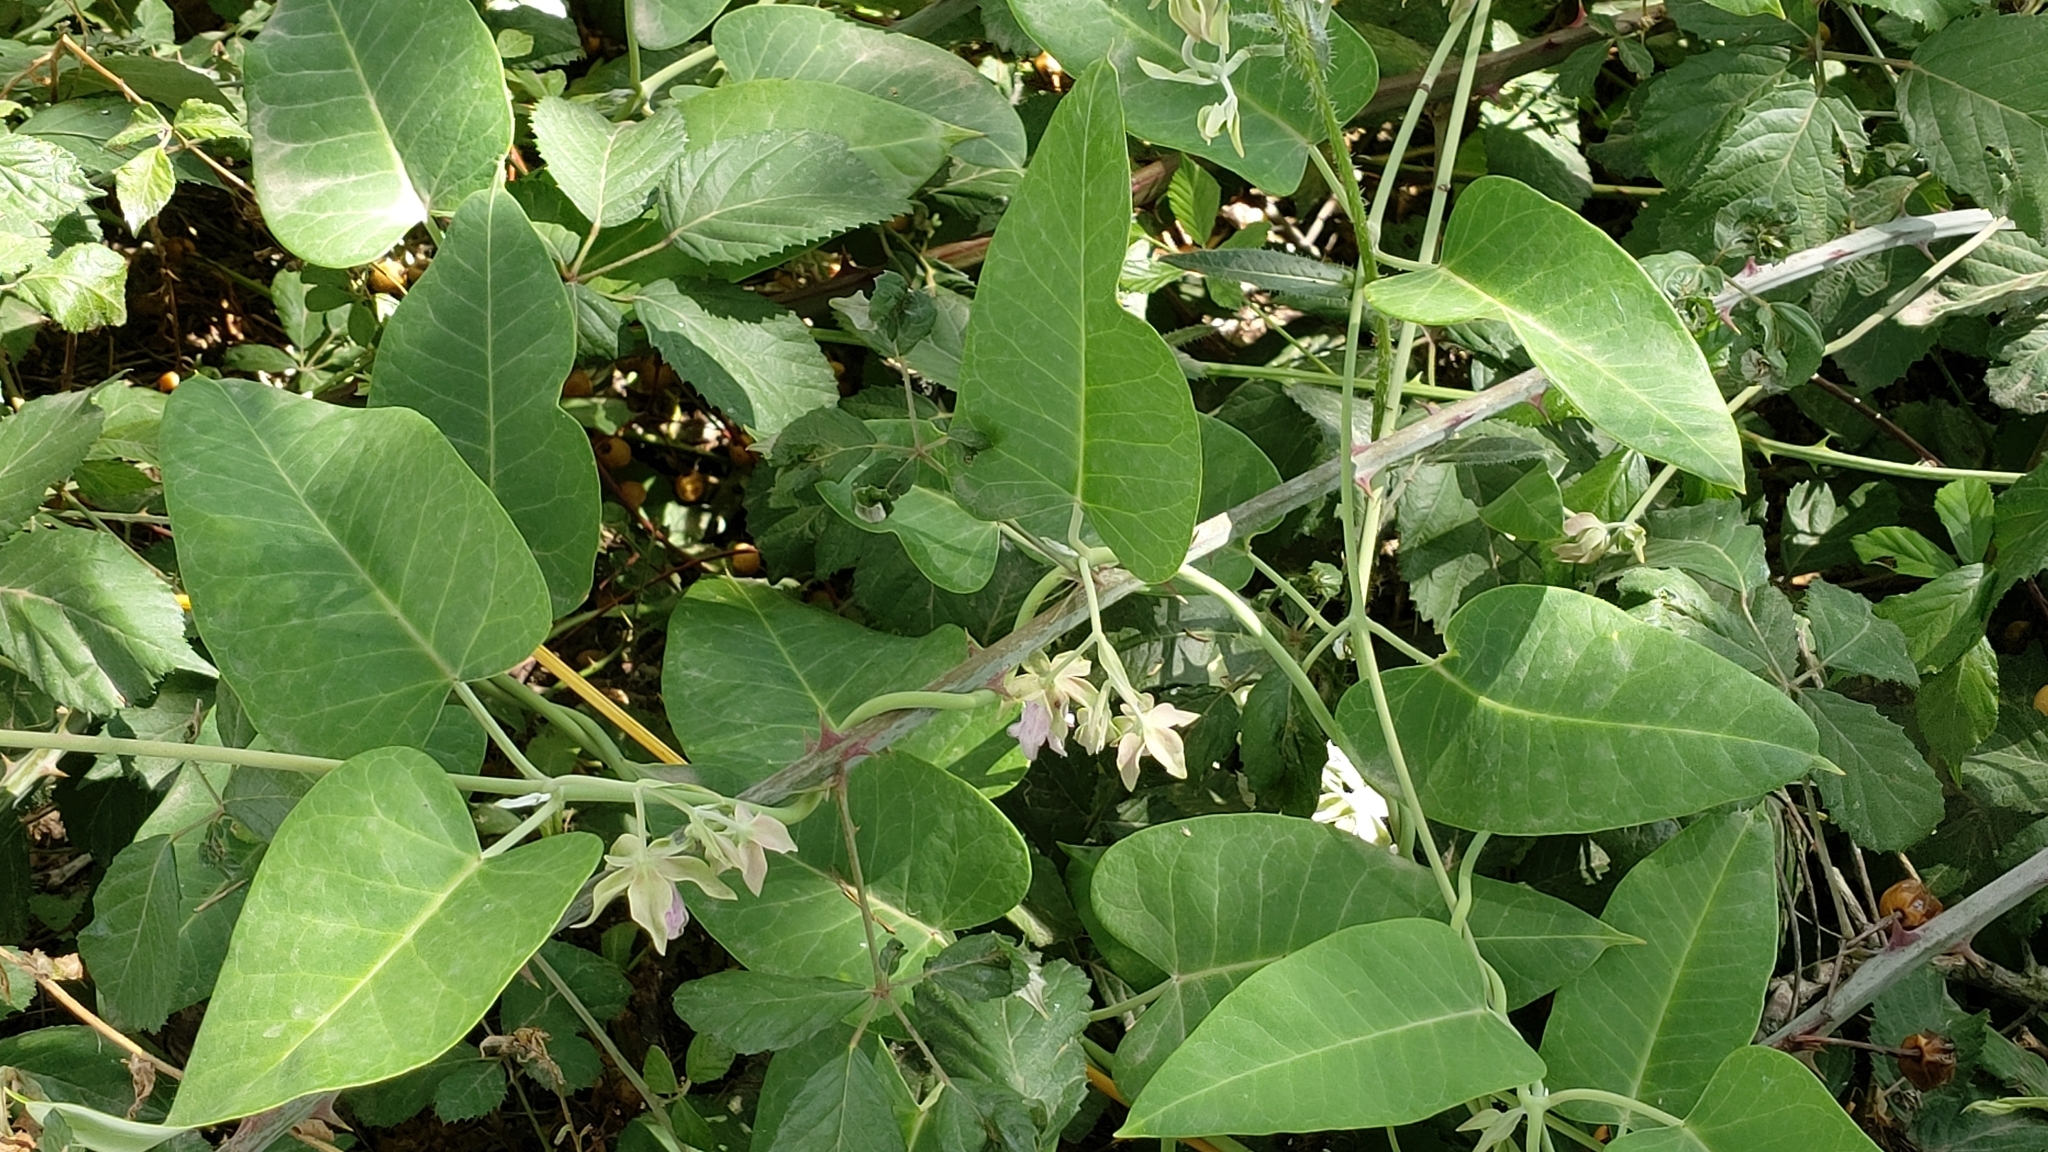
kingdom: Plantae
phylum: Tracheophyta
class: Magnoliopsida
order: Gentianales
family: Apocynaceae
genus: Araujia
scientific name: Araujia sericifera
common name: White bladderflower
